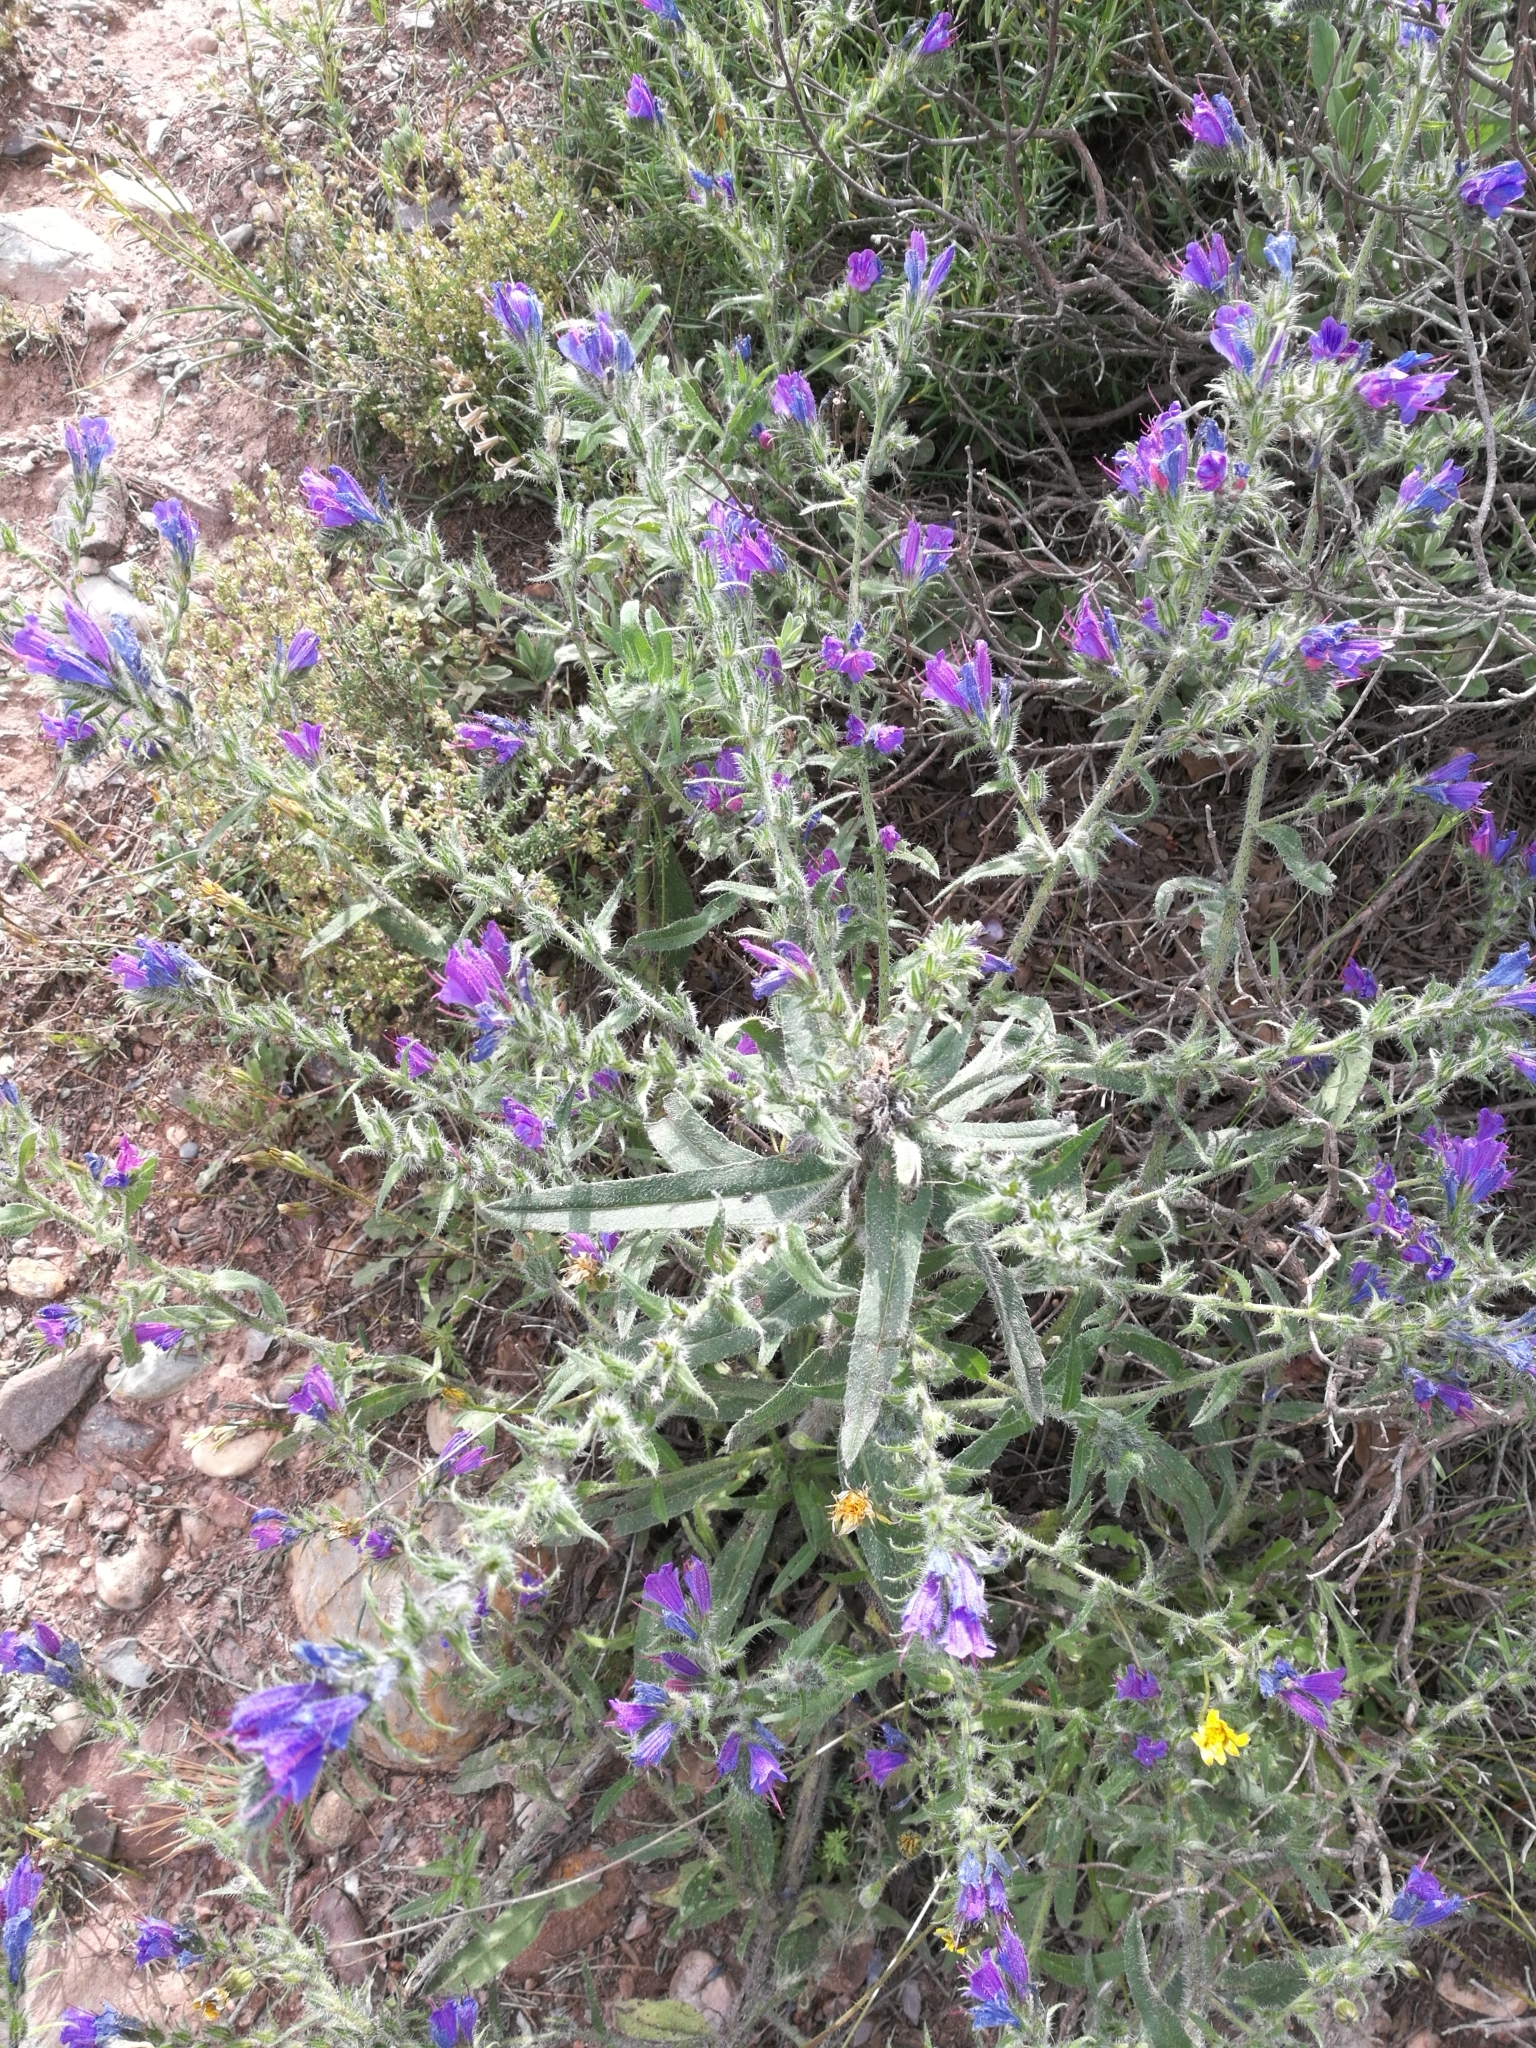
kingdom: Plantae
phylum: Tracheophyta
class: Magnoliopsida
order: Boraginales
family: Boraginaceae
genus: Echium
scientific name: Echium vulgare
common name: Common viper's bugloss
